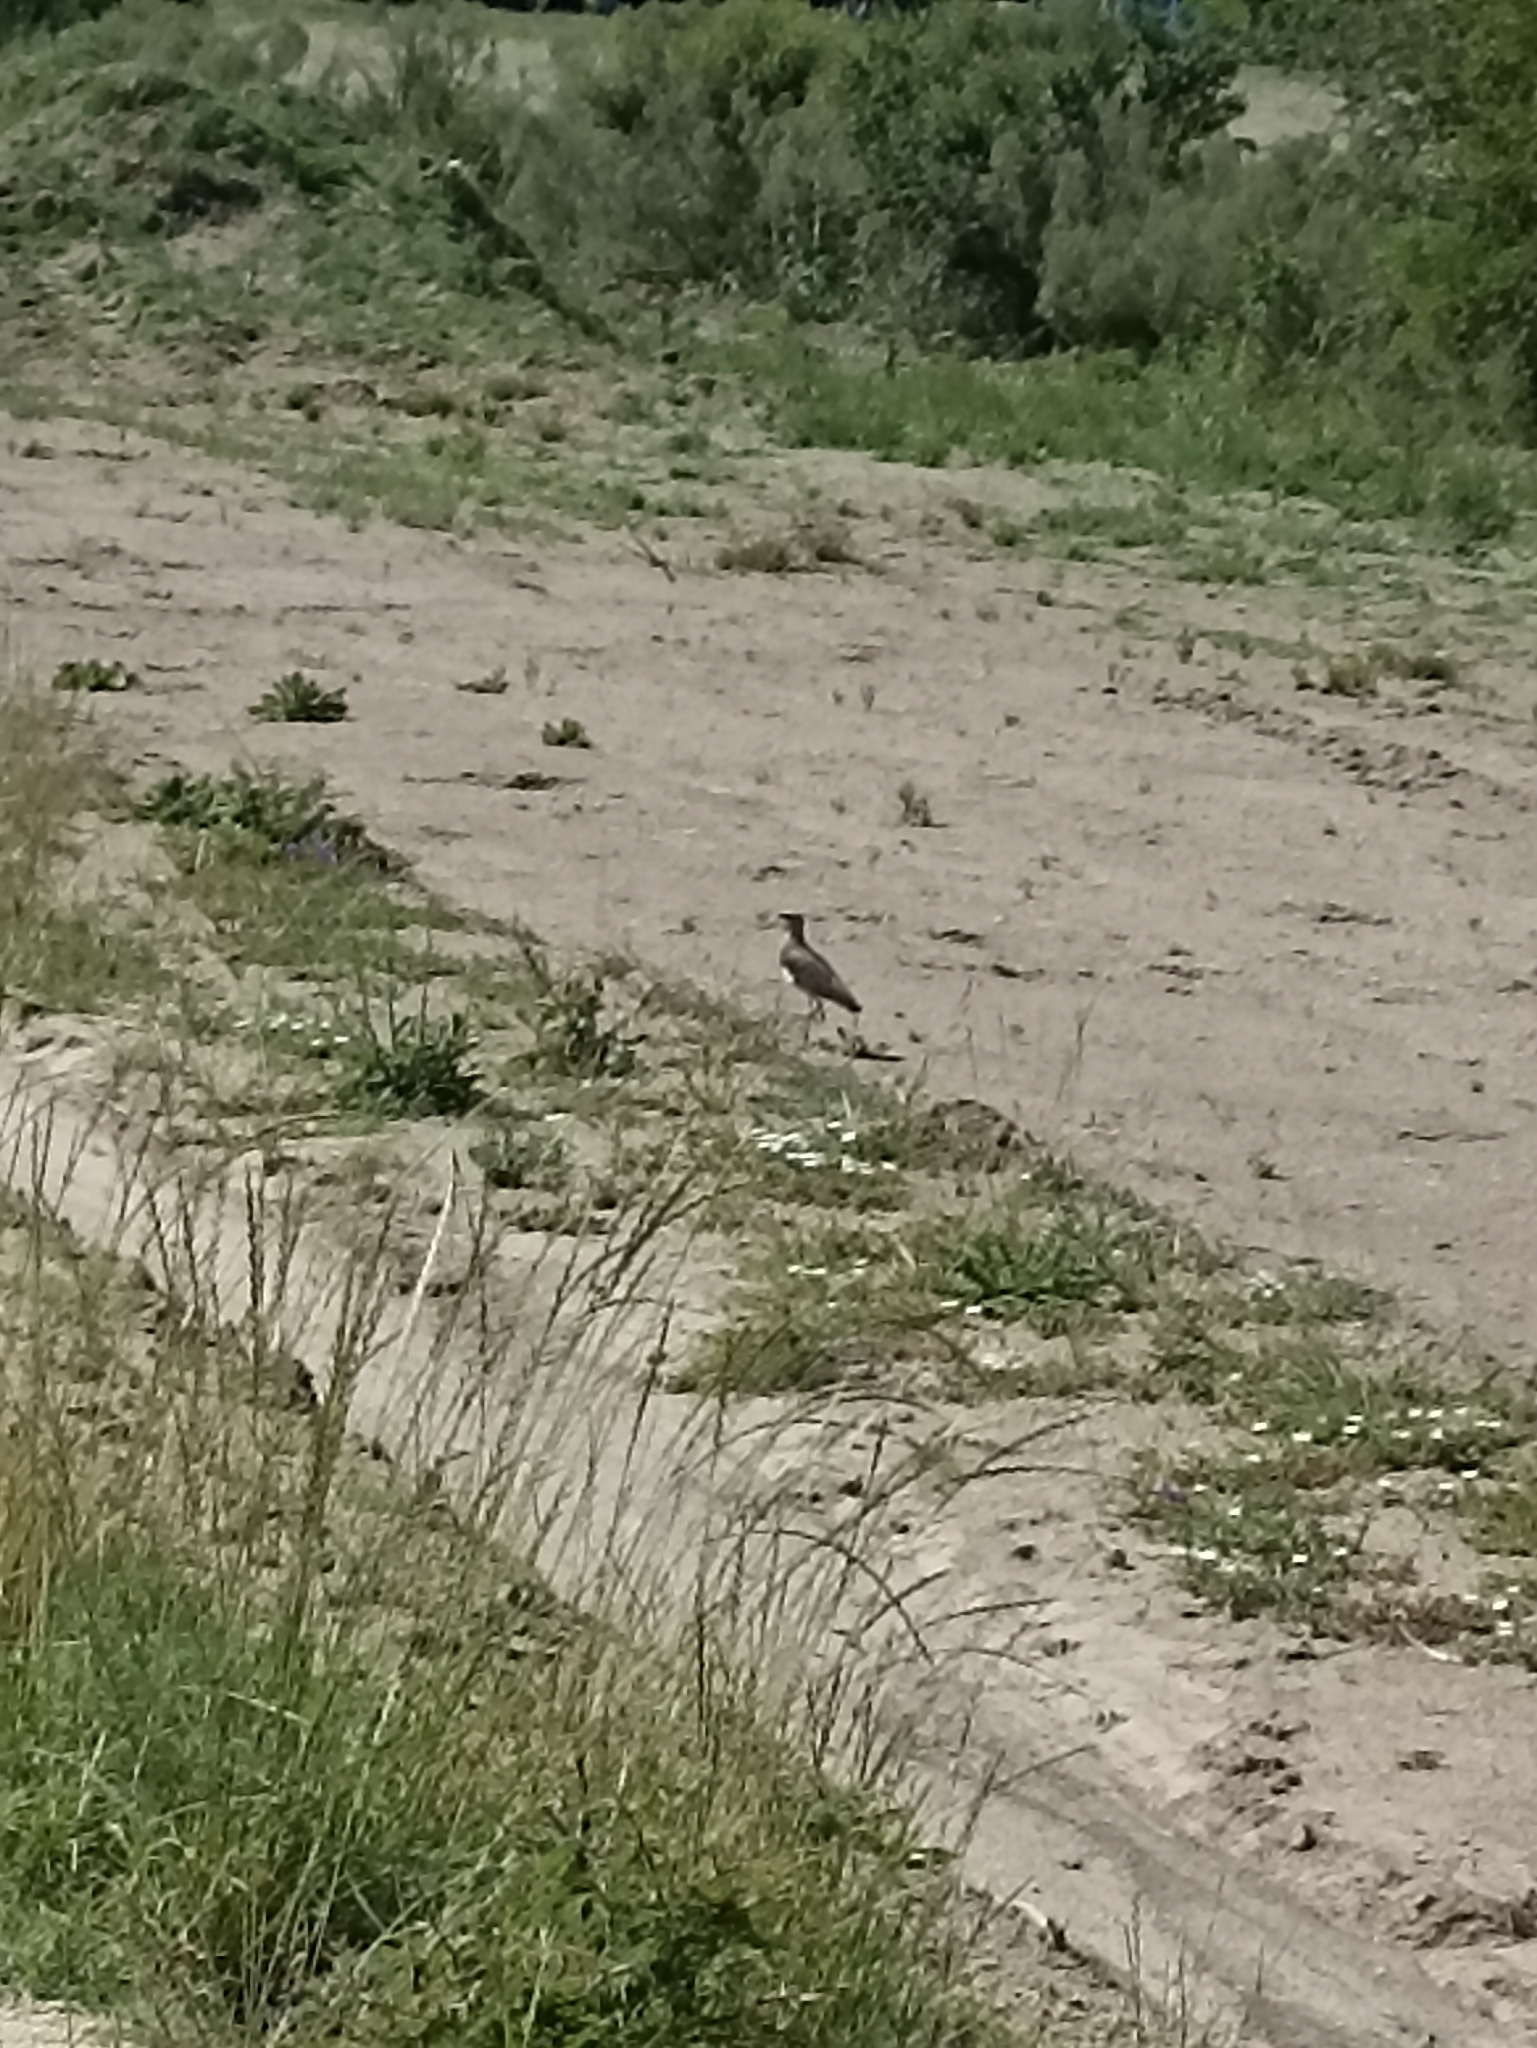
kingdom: Animalia
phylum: Chordata
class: Aves
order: Charadriiformes
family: Charadriidae
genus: Vanellus
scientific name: Vanellus chilensis
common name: Southern lapwing
